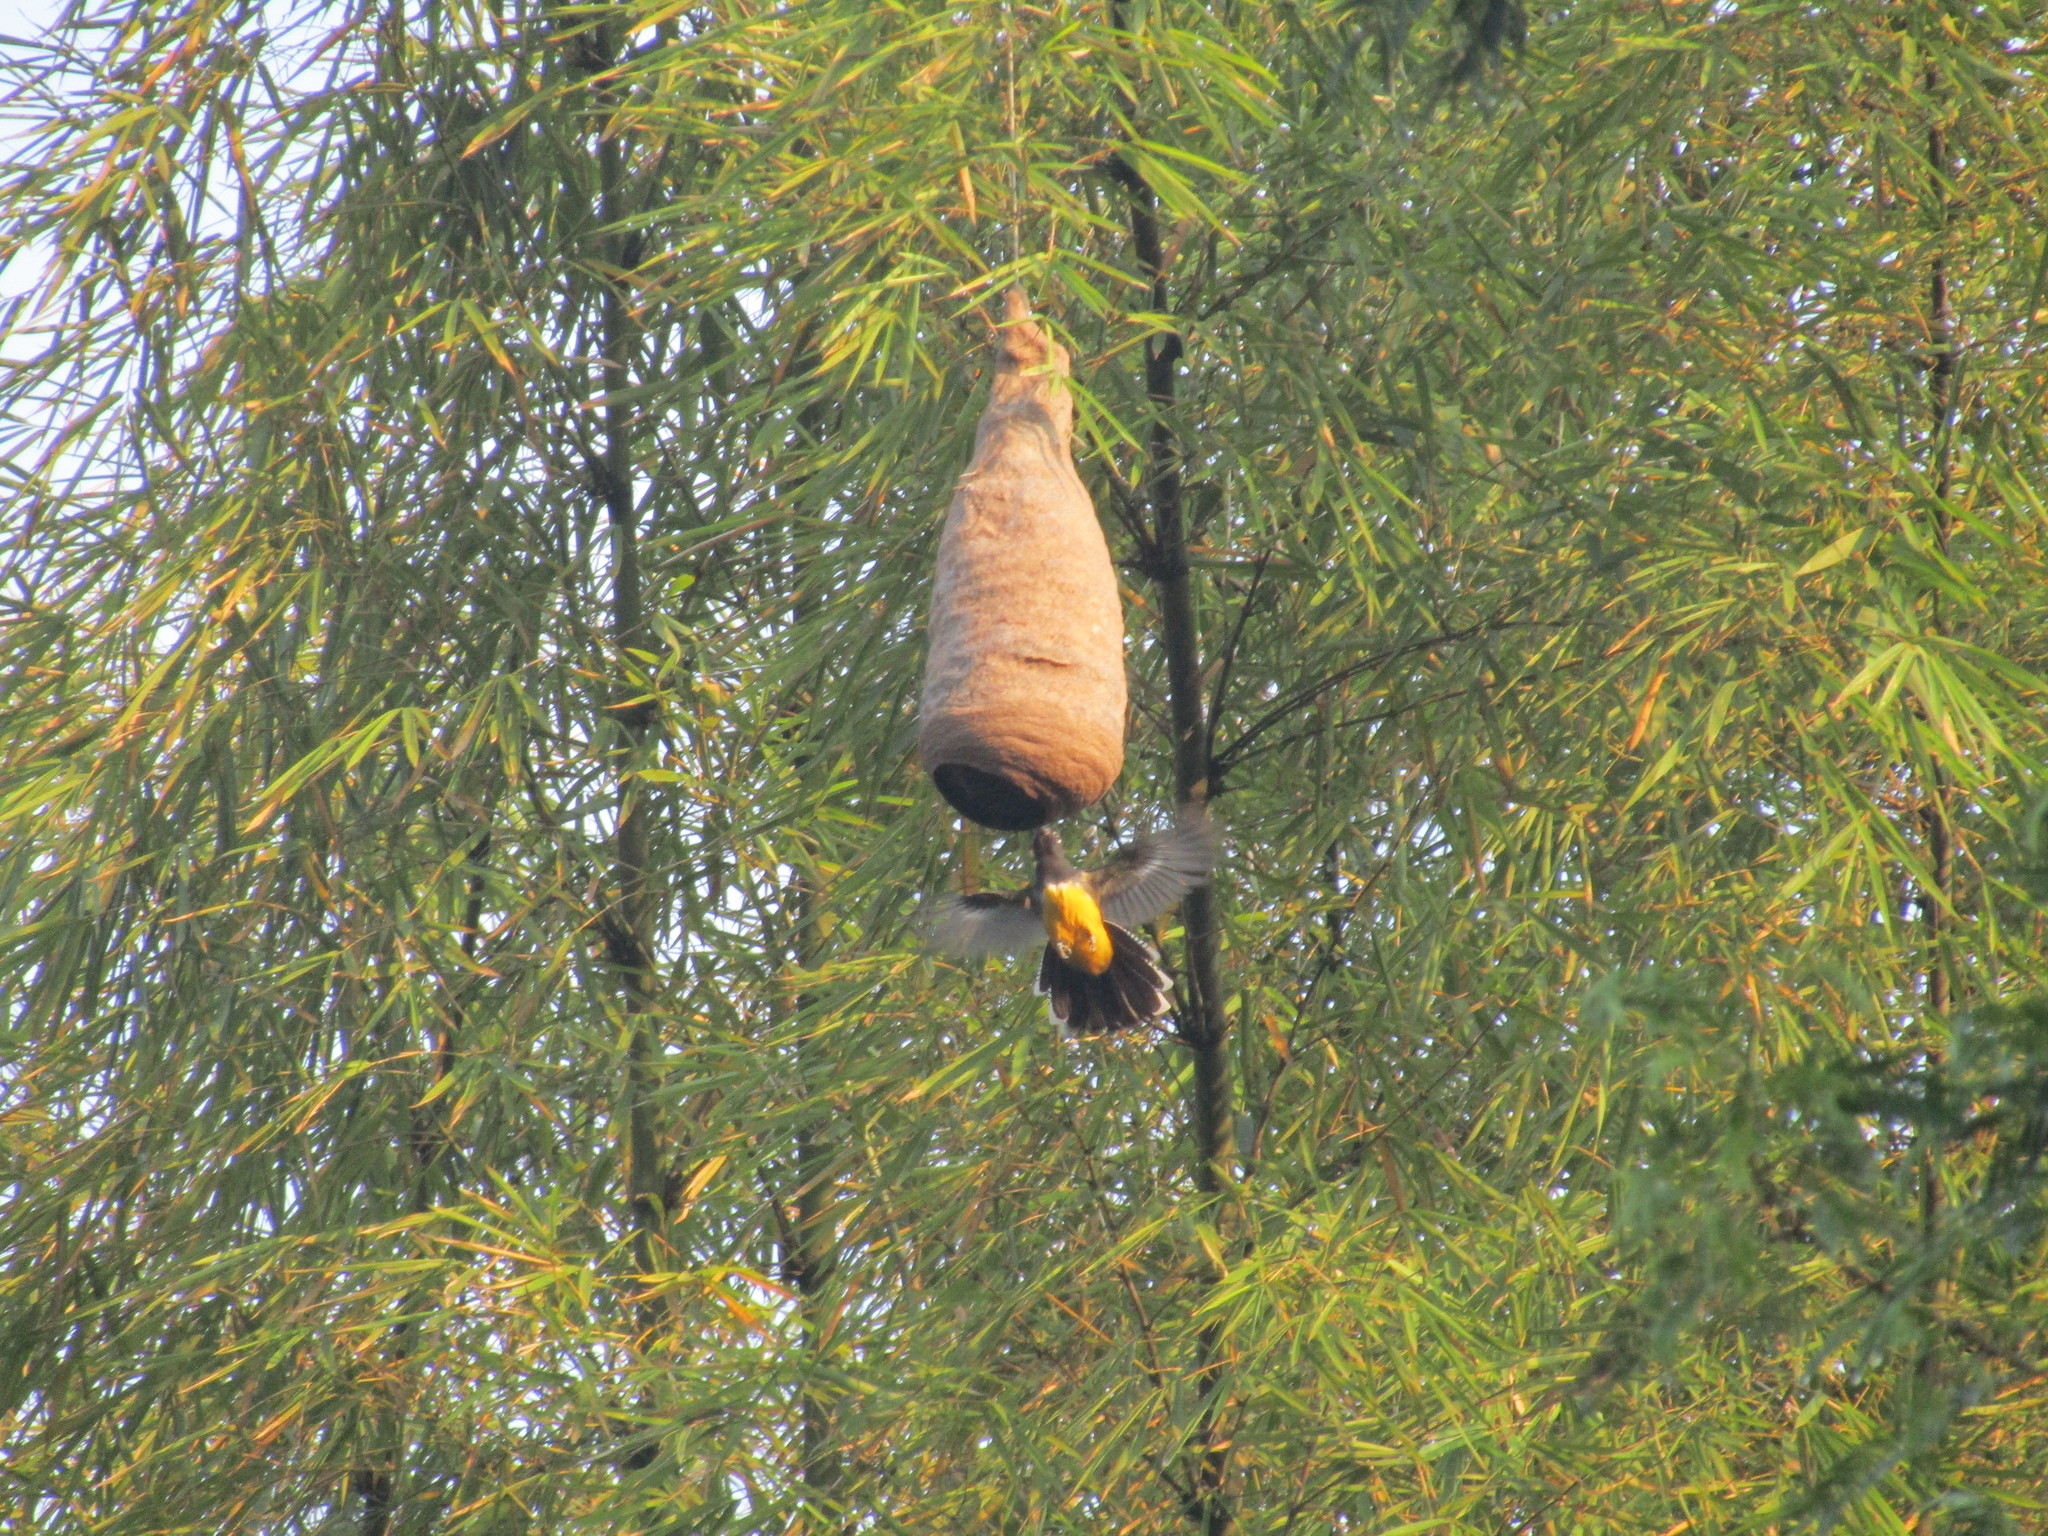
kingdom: Animalia
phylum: Chordata
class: Aves
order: Trogoniformes
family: Trogonidae
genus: Trogon
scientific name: Trogon caligatus
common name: Gartered trogon
